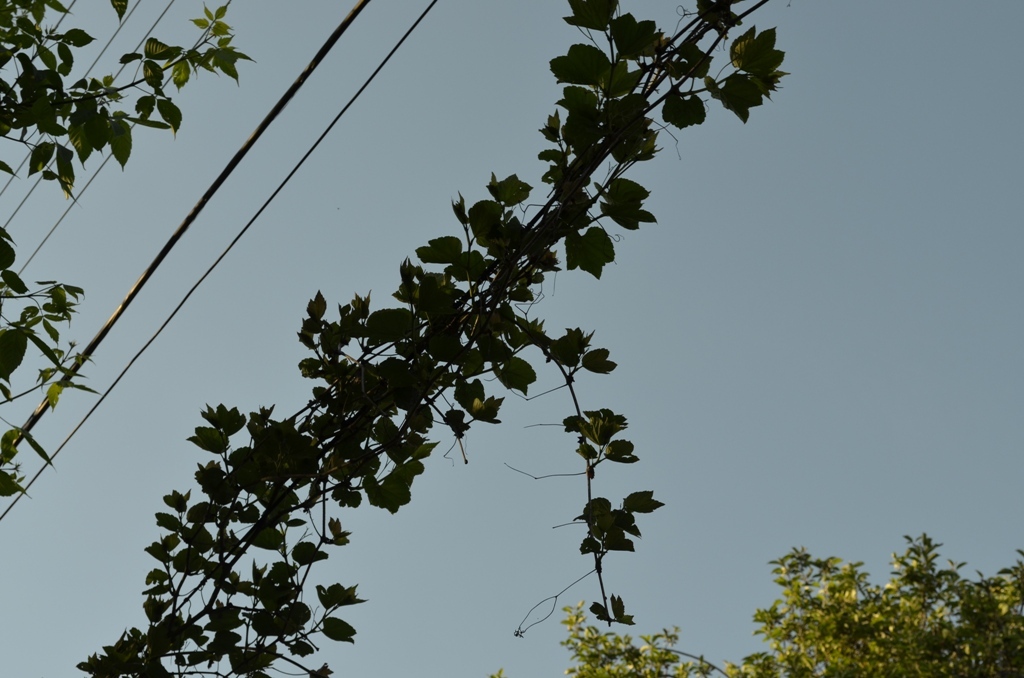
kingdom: Plantae
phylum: Tracheophyta
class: Magnoliopsida
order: Vitales
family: Vitaceae
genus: Ampelopsis
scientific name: Ampelopsis glandulosa
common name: Amur peppervine
